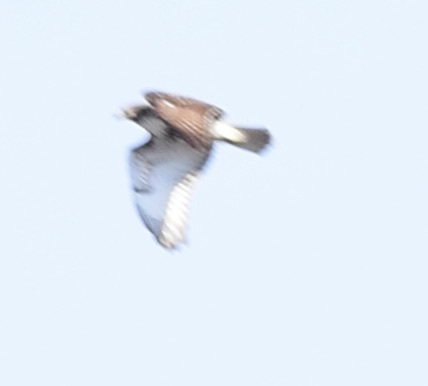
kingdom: Animalia
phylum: Chordata
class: Aves
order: Accipitriformes
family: Accipitridae
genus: Buteo
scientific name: Buteo jamaicensis
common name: Red-tailed hawk
